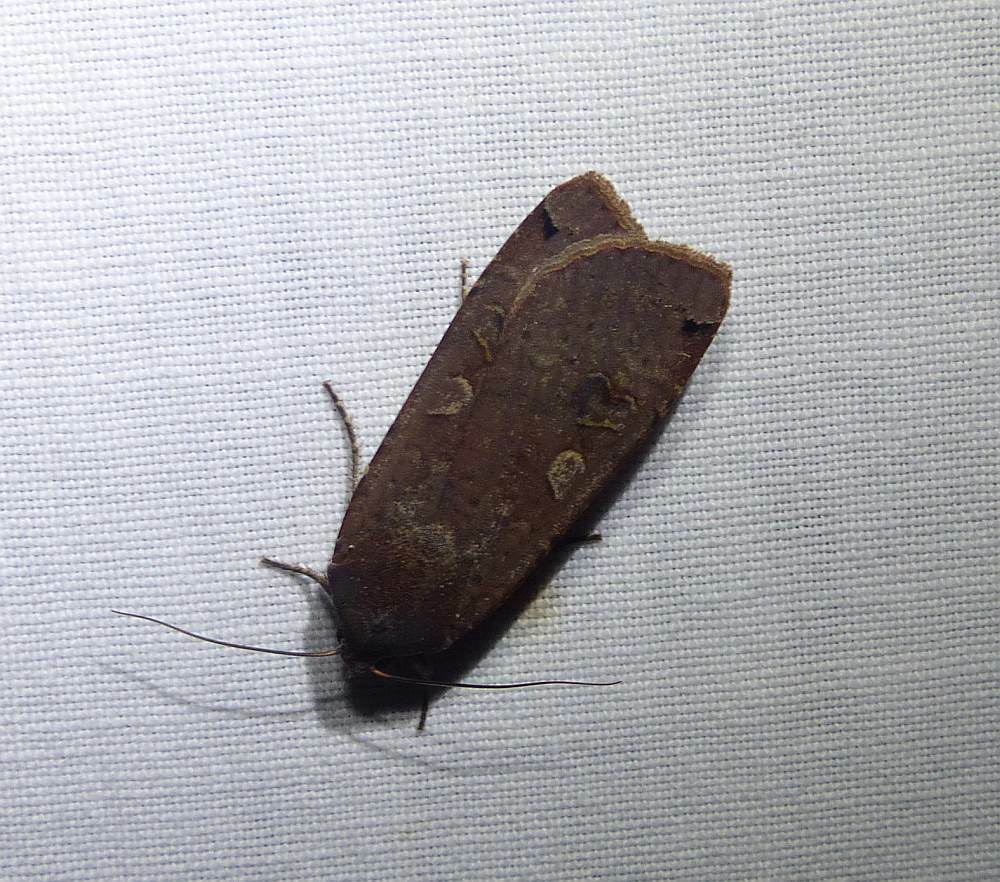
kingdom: Animalia
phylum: Arthropoda
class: Insecta
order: Lepidoptera
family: Noctuidae
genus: Noctua
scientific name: Noctua pronuba
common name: Large yellow underwing
